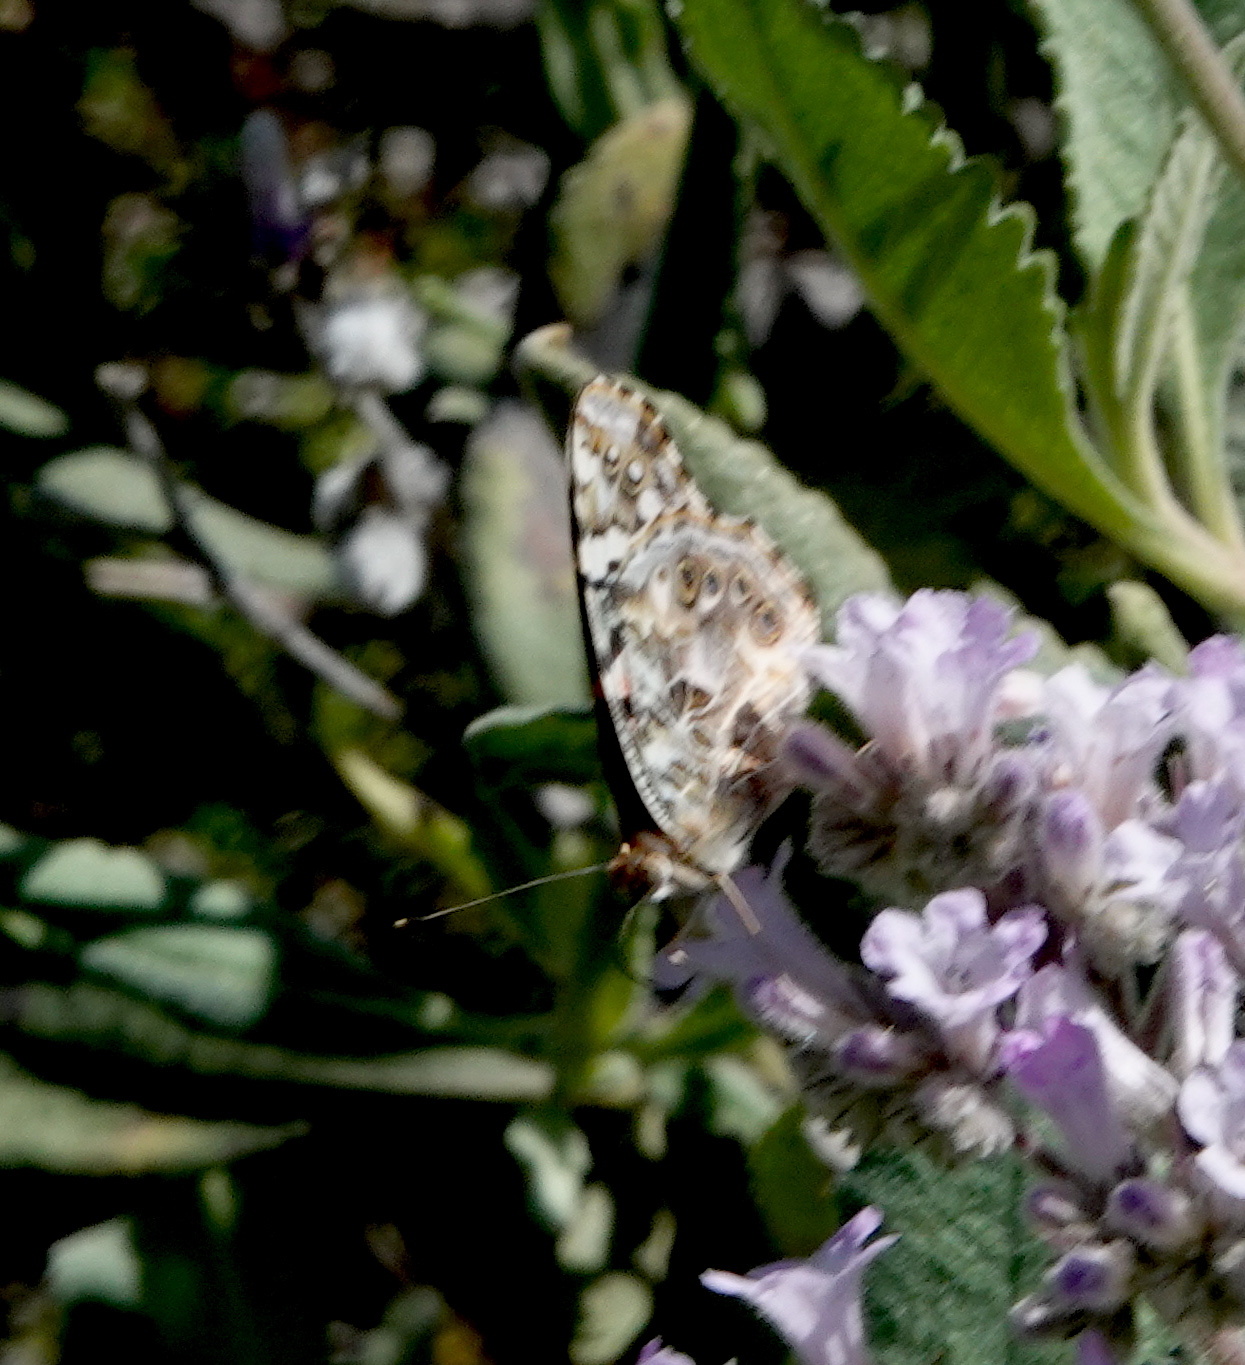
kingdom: Animalia
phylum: Arthropoda
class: Insecta
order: Lepidoptera
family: Nymphalidae
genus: Vanessa
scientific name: Vanessa cardui
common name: Painted lady
